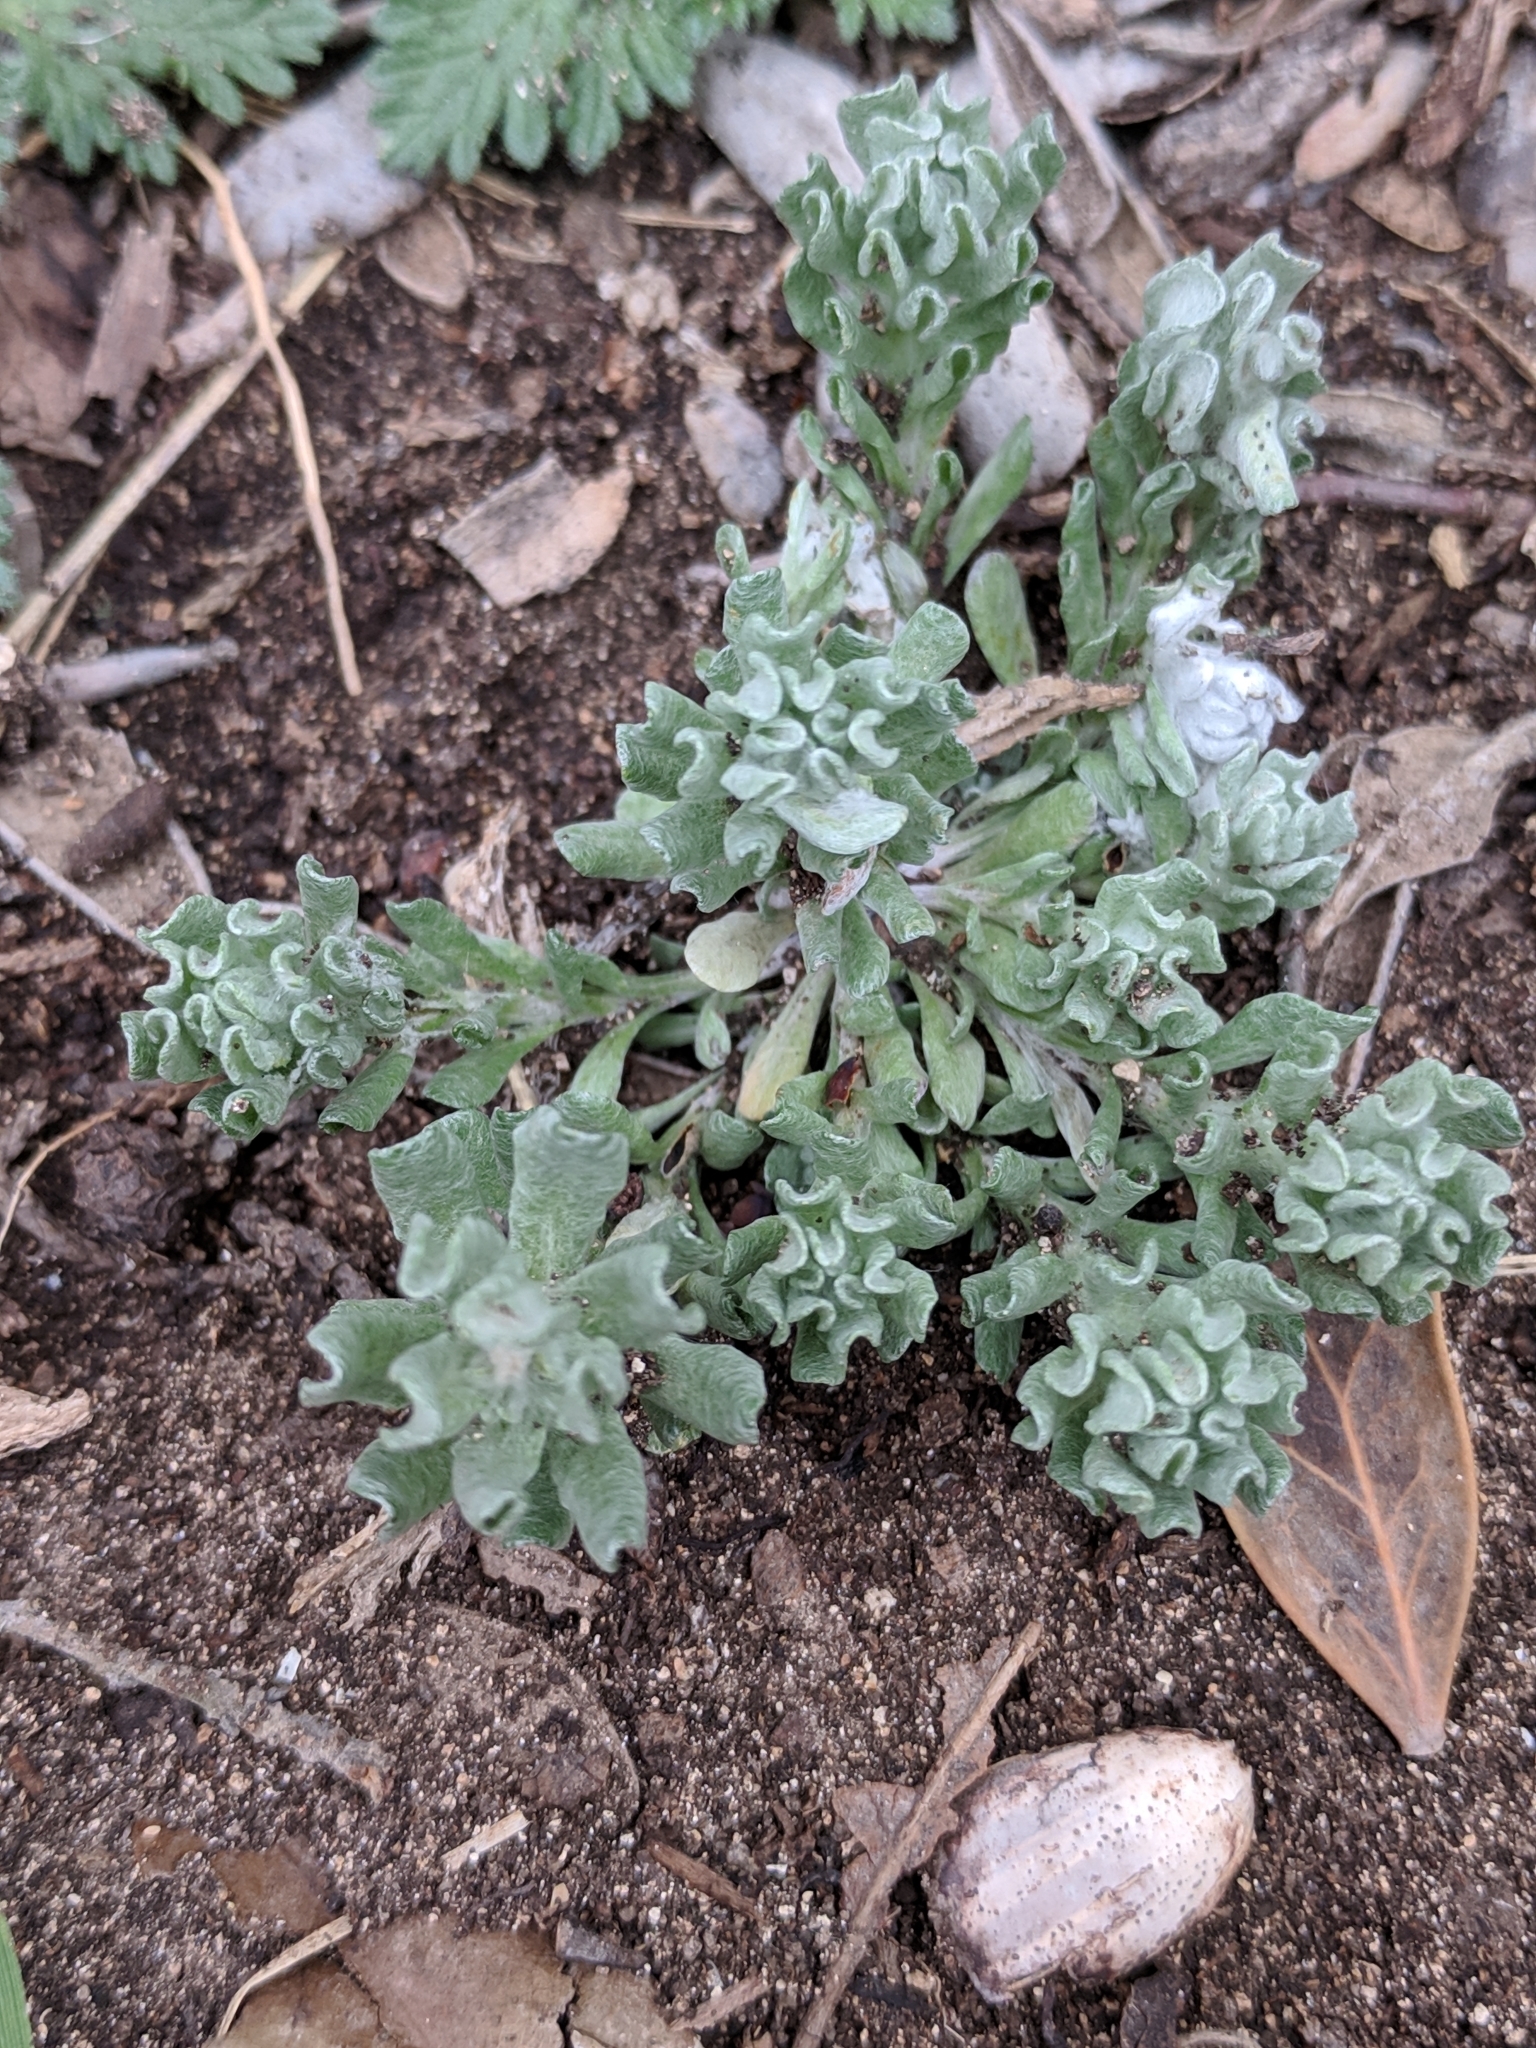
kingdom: Plantae
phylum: Tracheophyta
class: Magnoliopsida
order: Asterales
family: Asteraceae
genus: Diaperia
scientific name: Diaperia verna
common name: Many-stem rabbit-tobacco
